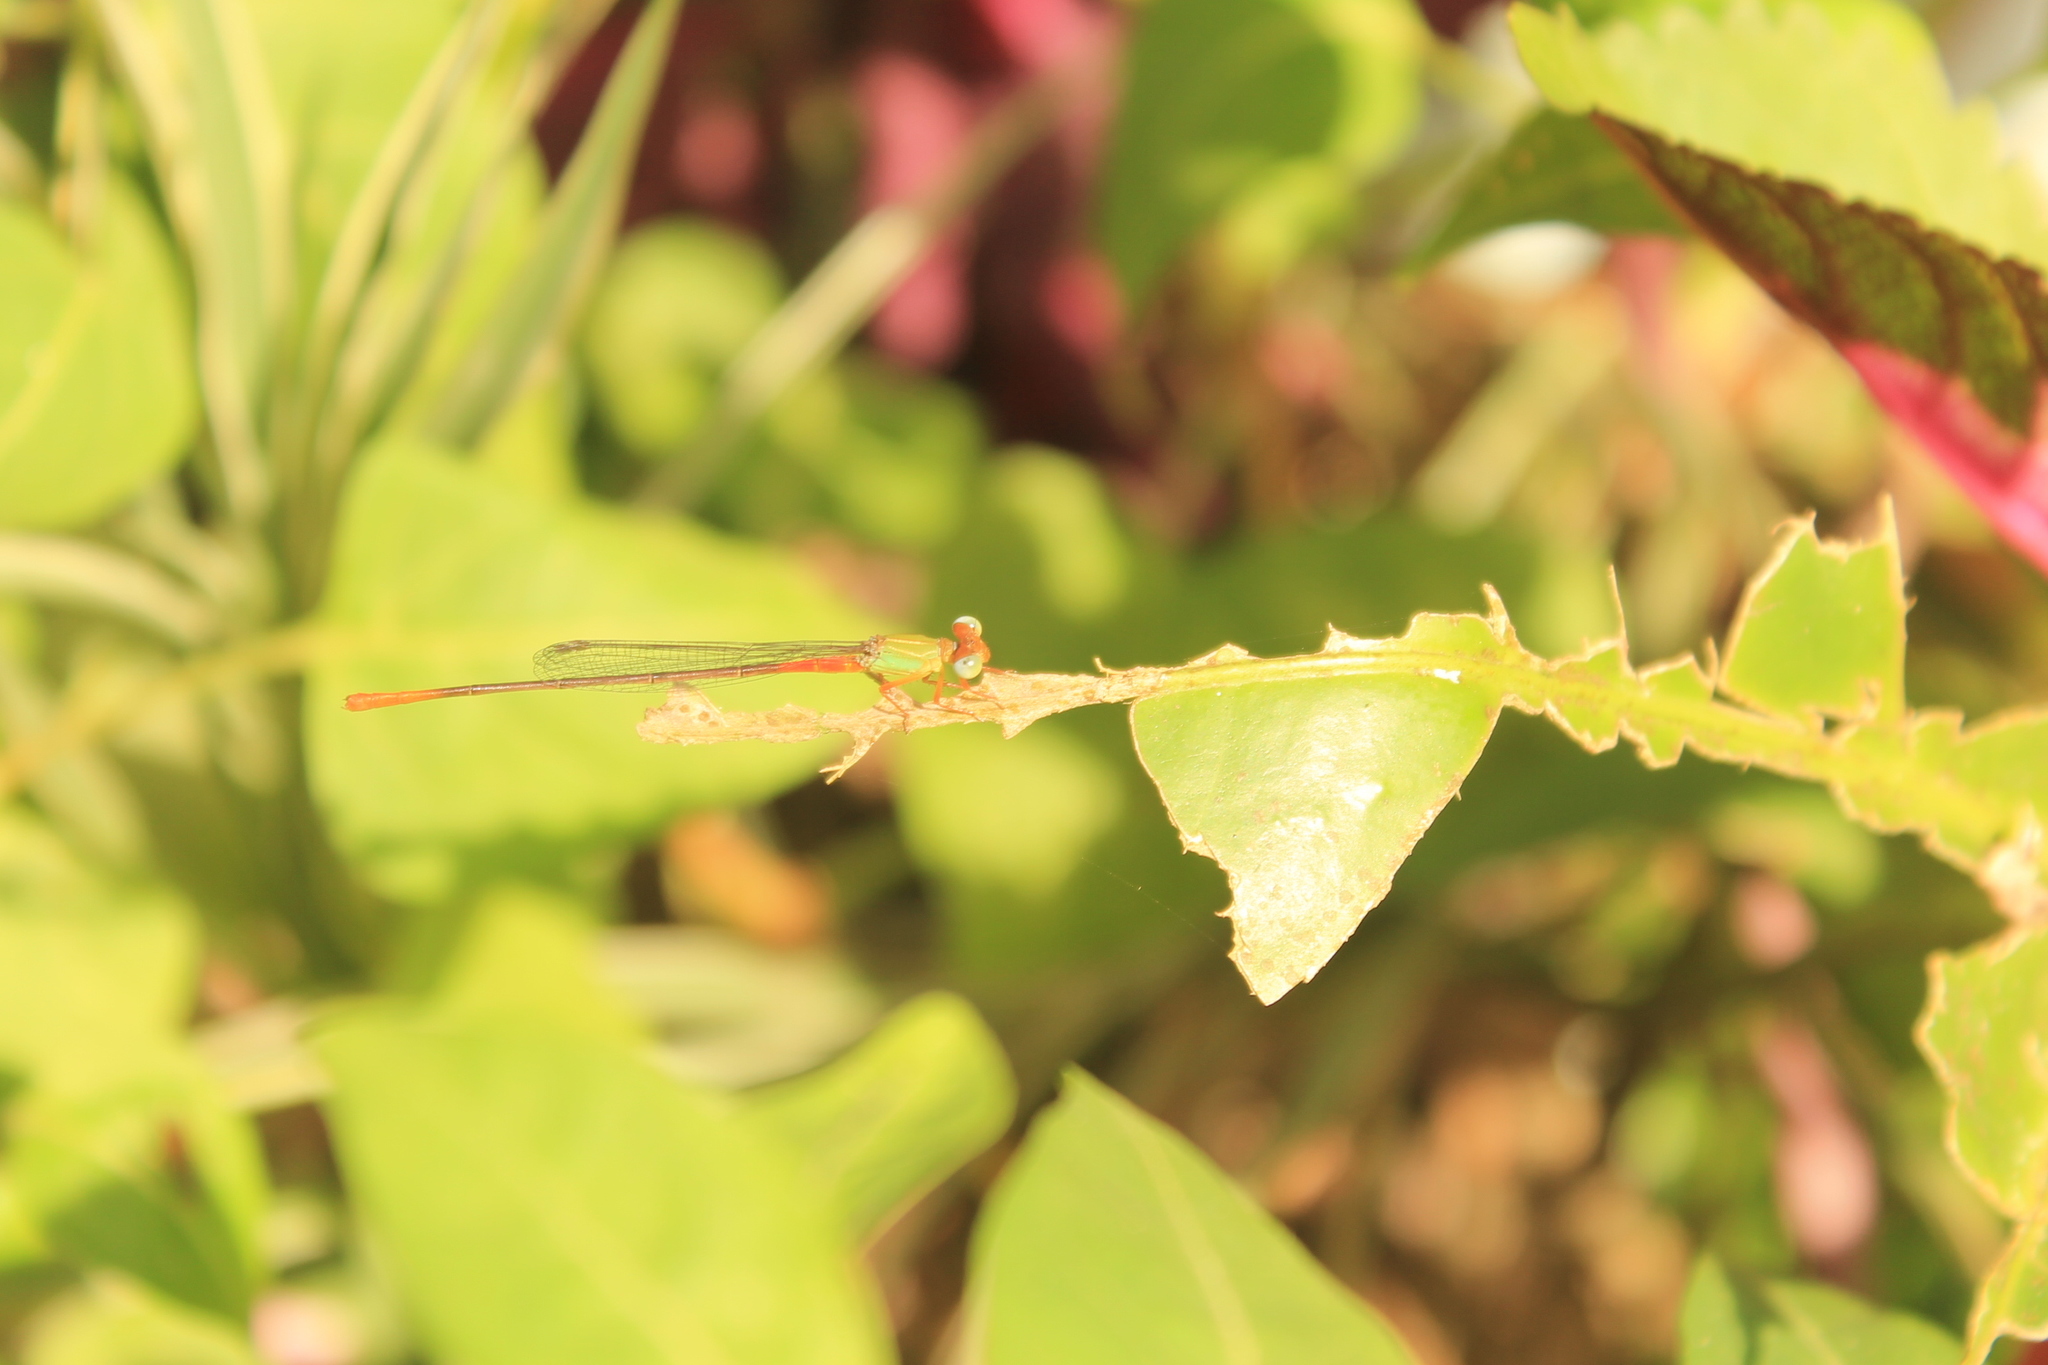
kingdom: Animalia
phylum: Arthropoda
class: Insecta
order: Odonata
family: Coenagrionidae
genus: Ceriagrion
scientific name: Ceriagrion cerinorubellum
